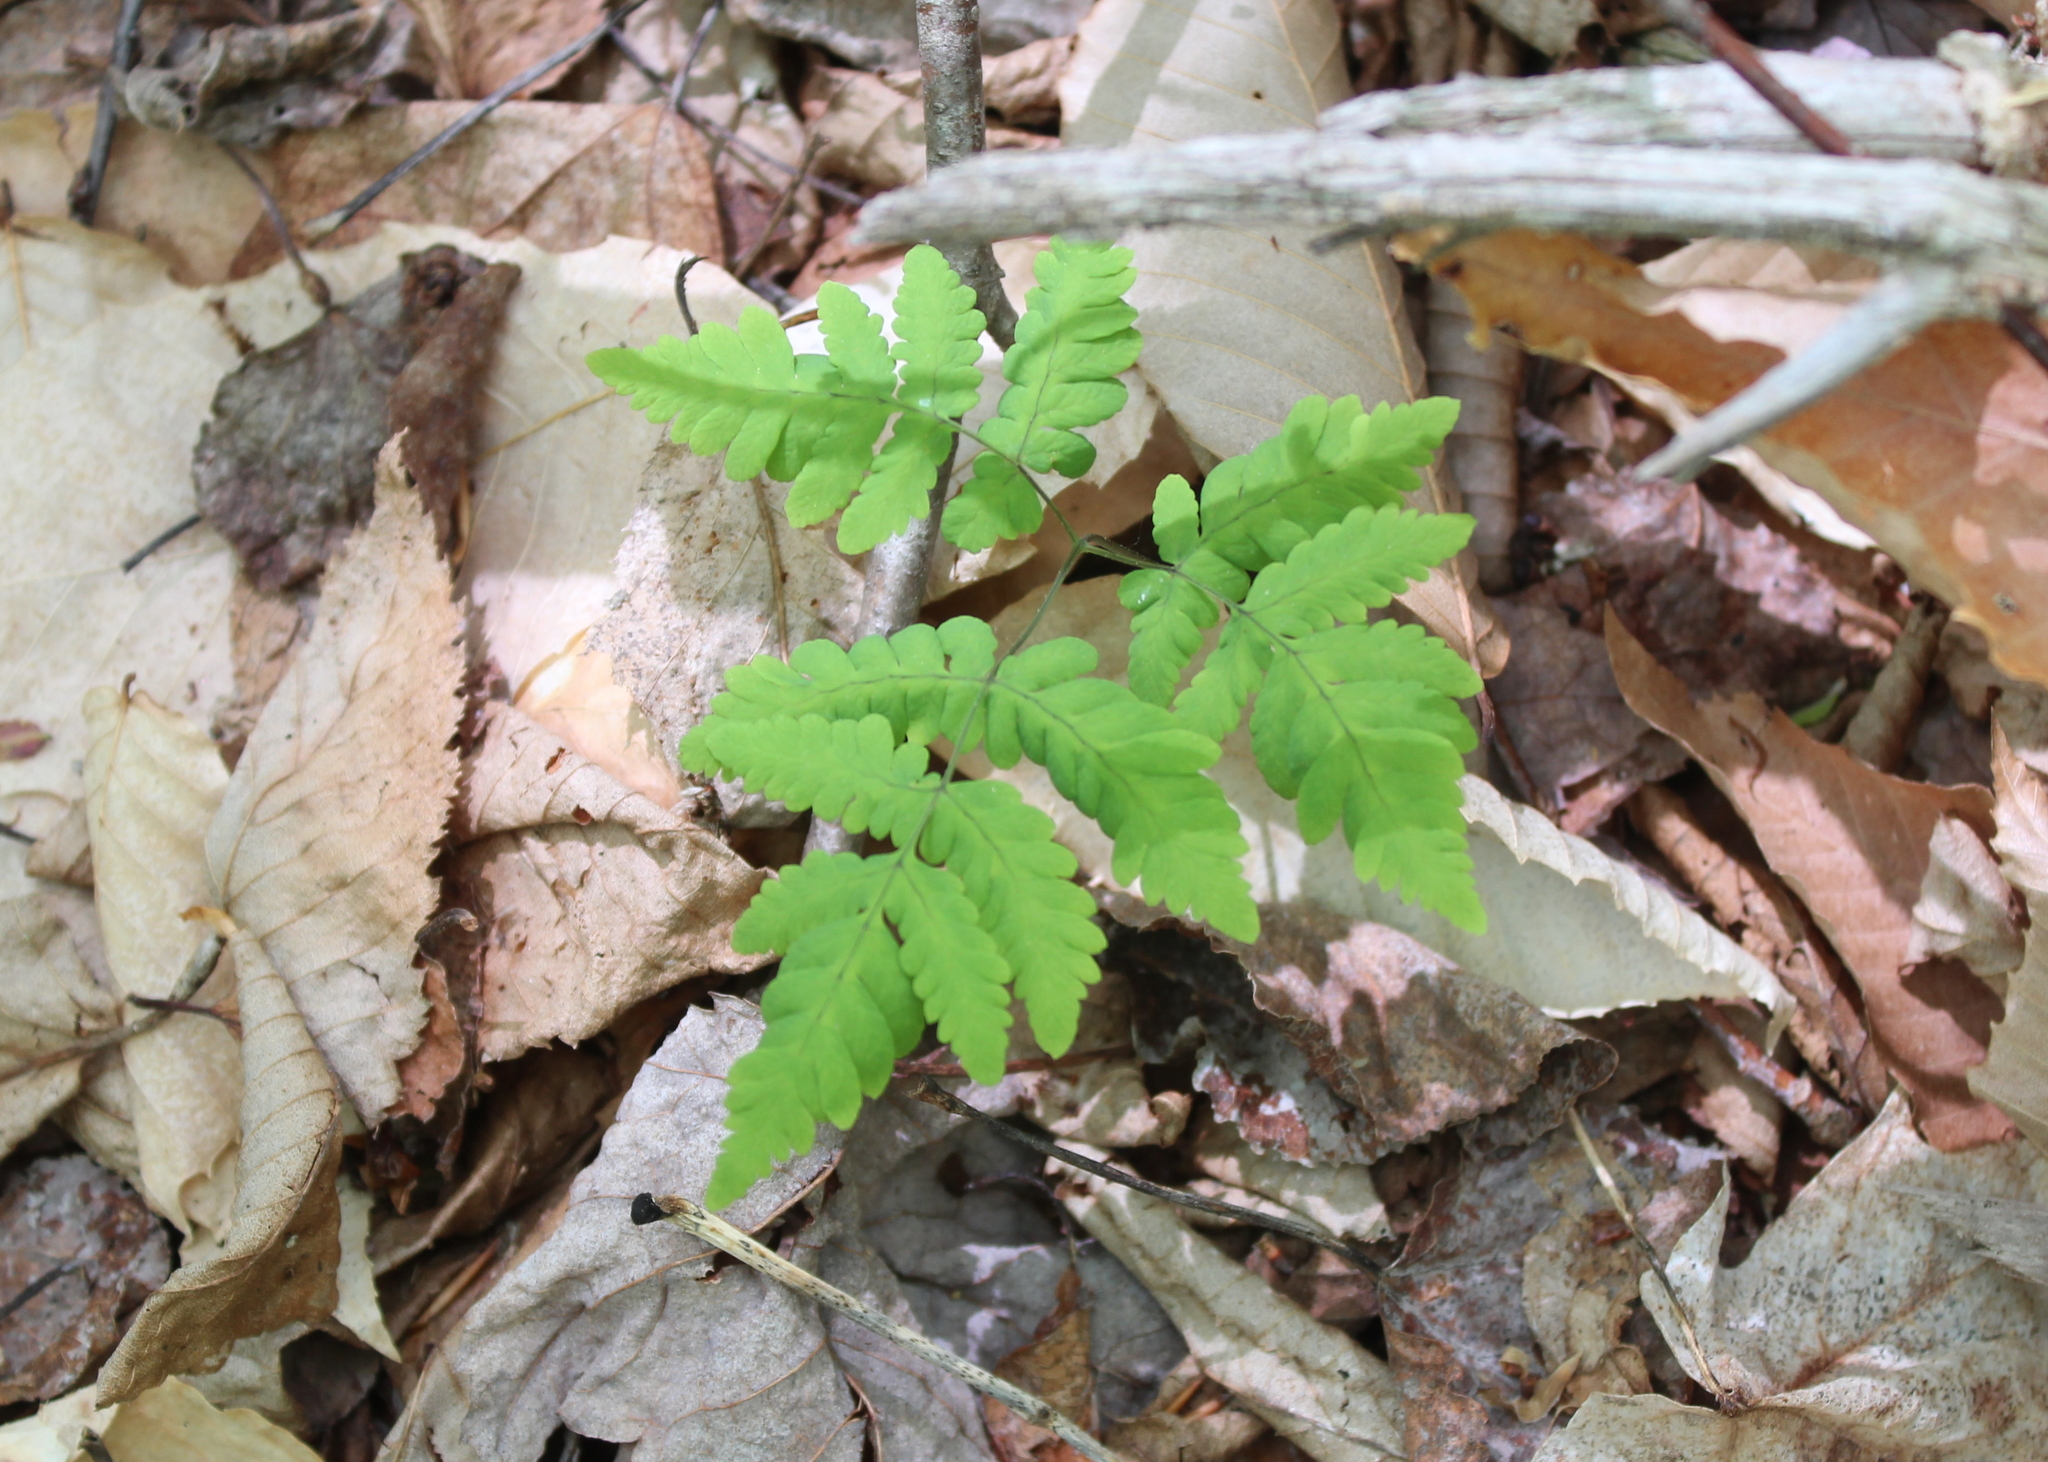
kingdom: Plantae
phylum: Tracheophyta
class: Polypodiopsida
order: Polypodiales
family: Cystopteridaceae
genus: Gymnocarpium
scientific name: Gymnocarpium dryopteris
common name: Oak fern
